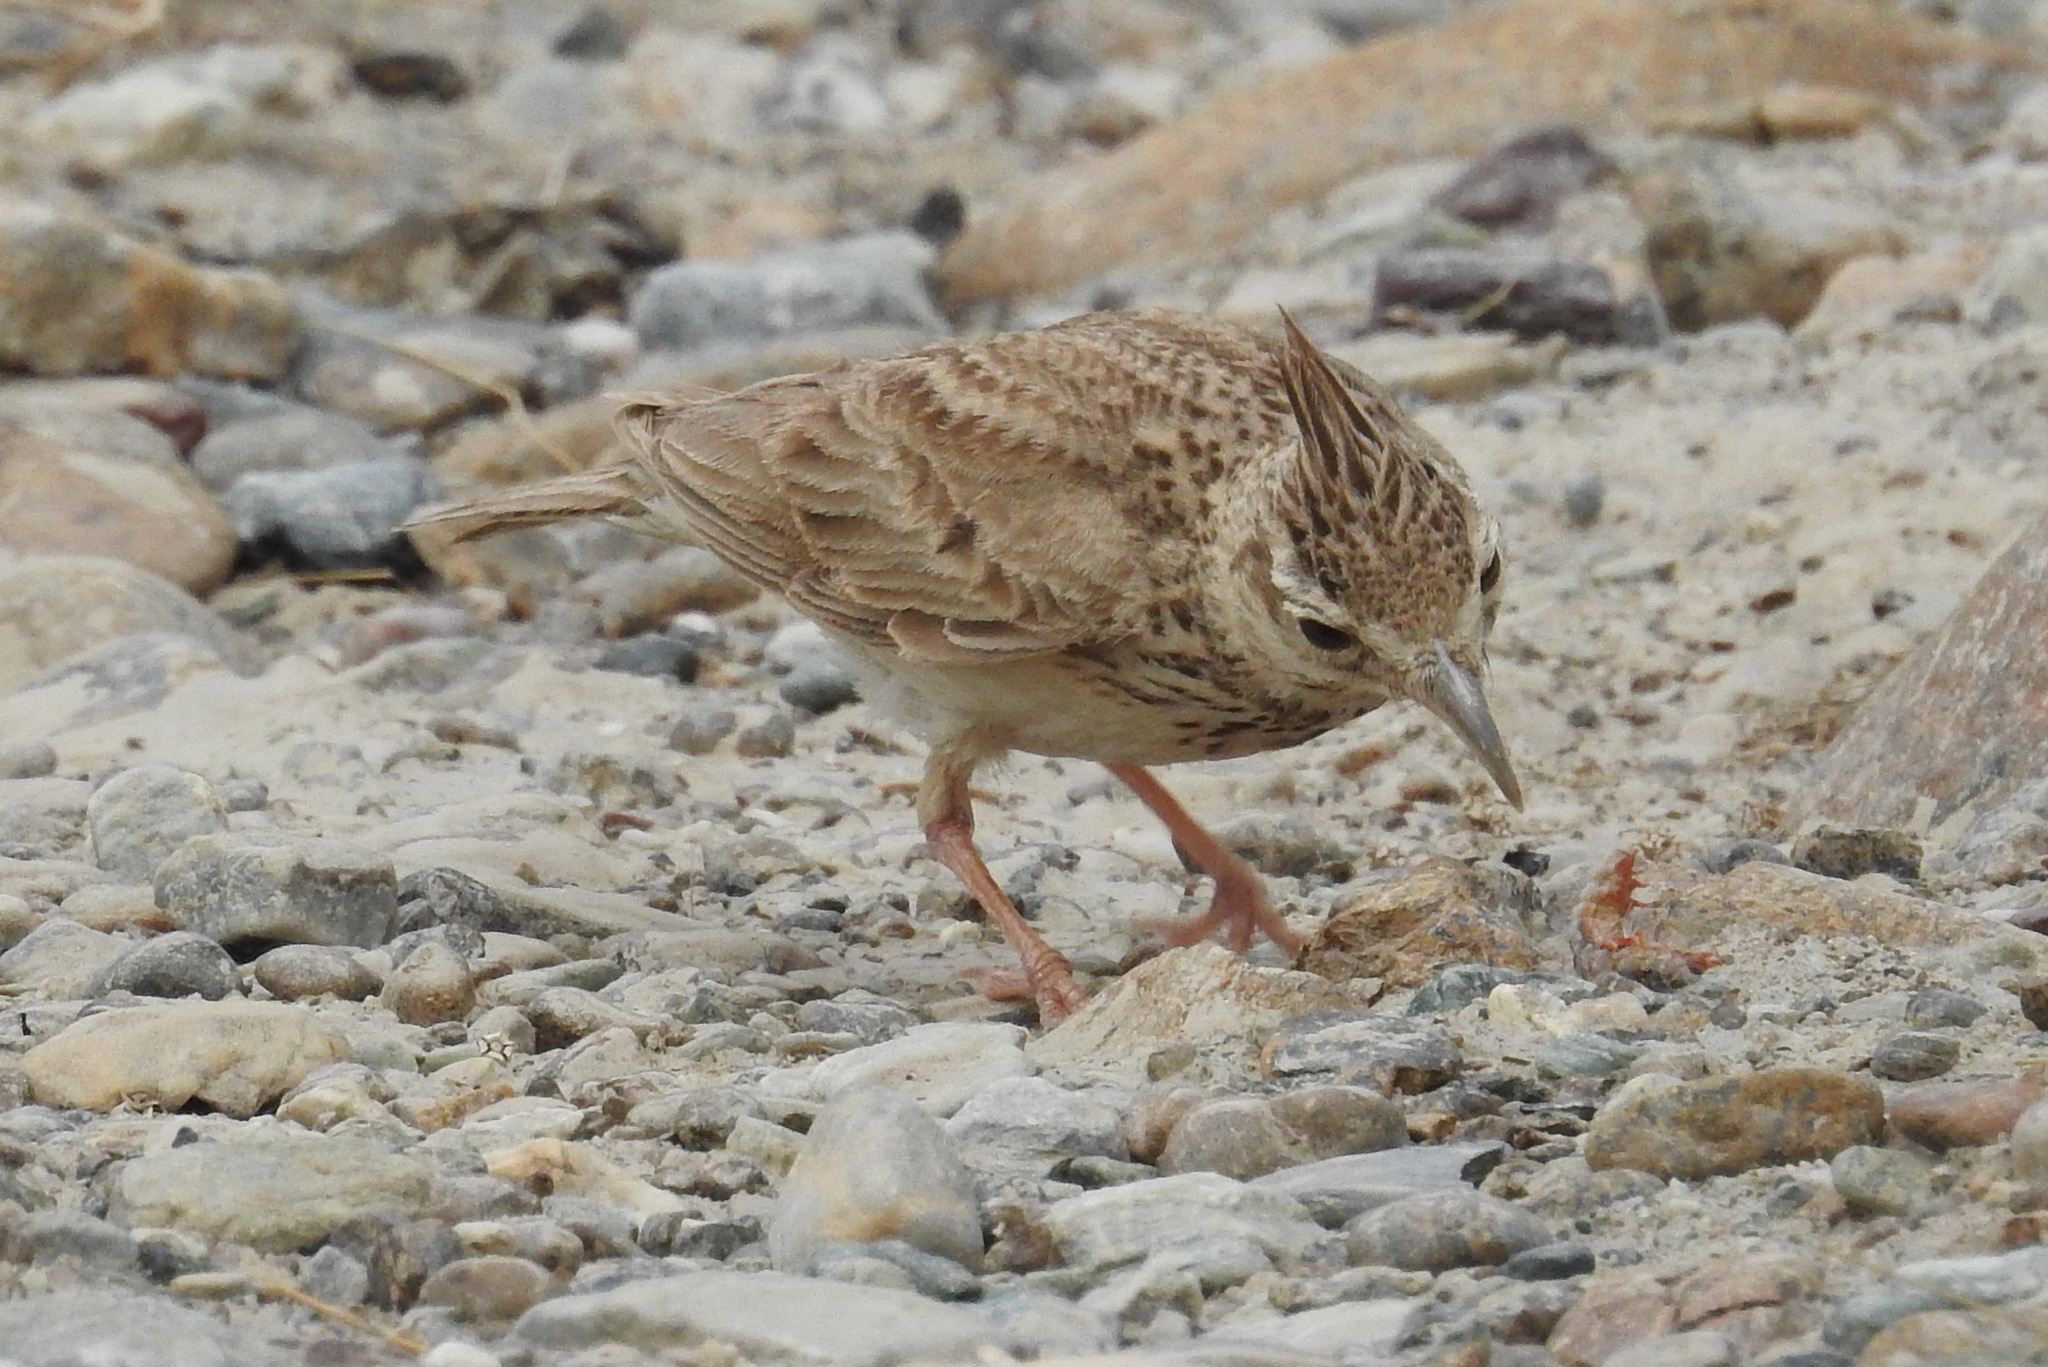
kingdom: Animalia
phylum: Chordata
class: Aves
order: Passeriformes
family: Alaudidae
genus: Galerida
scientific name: Galerida cristata
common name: Crested lark
